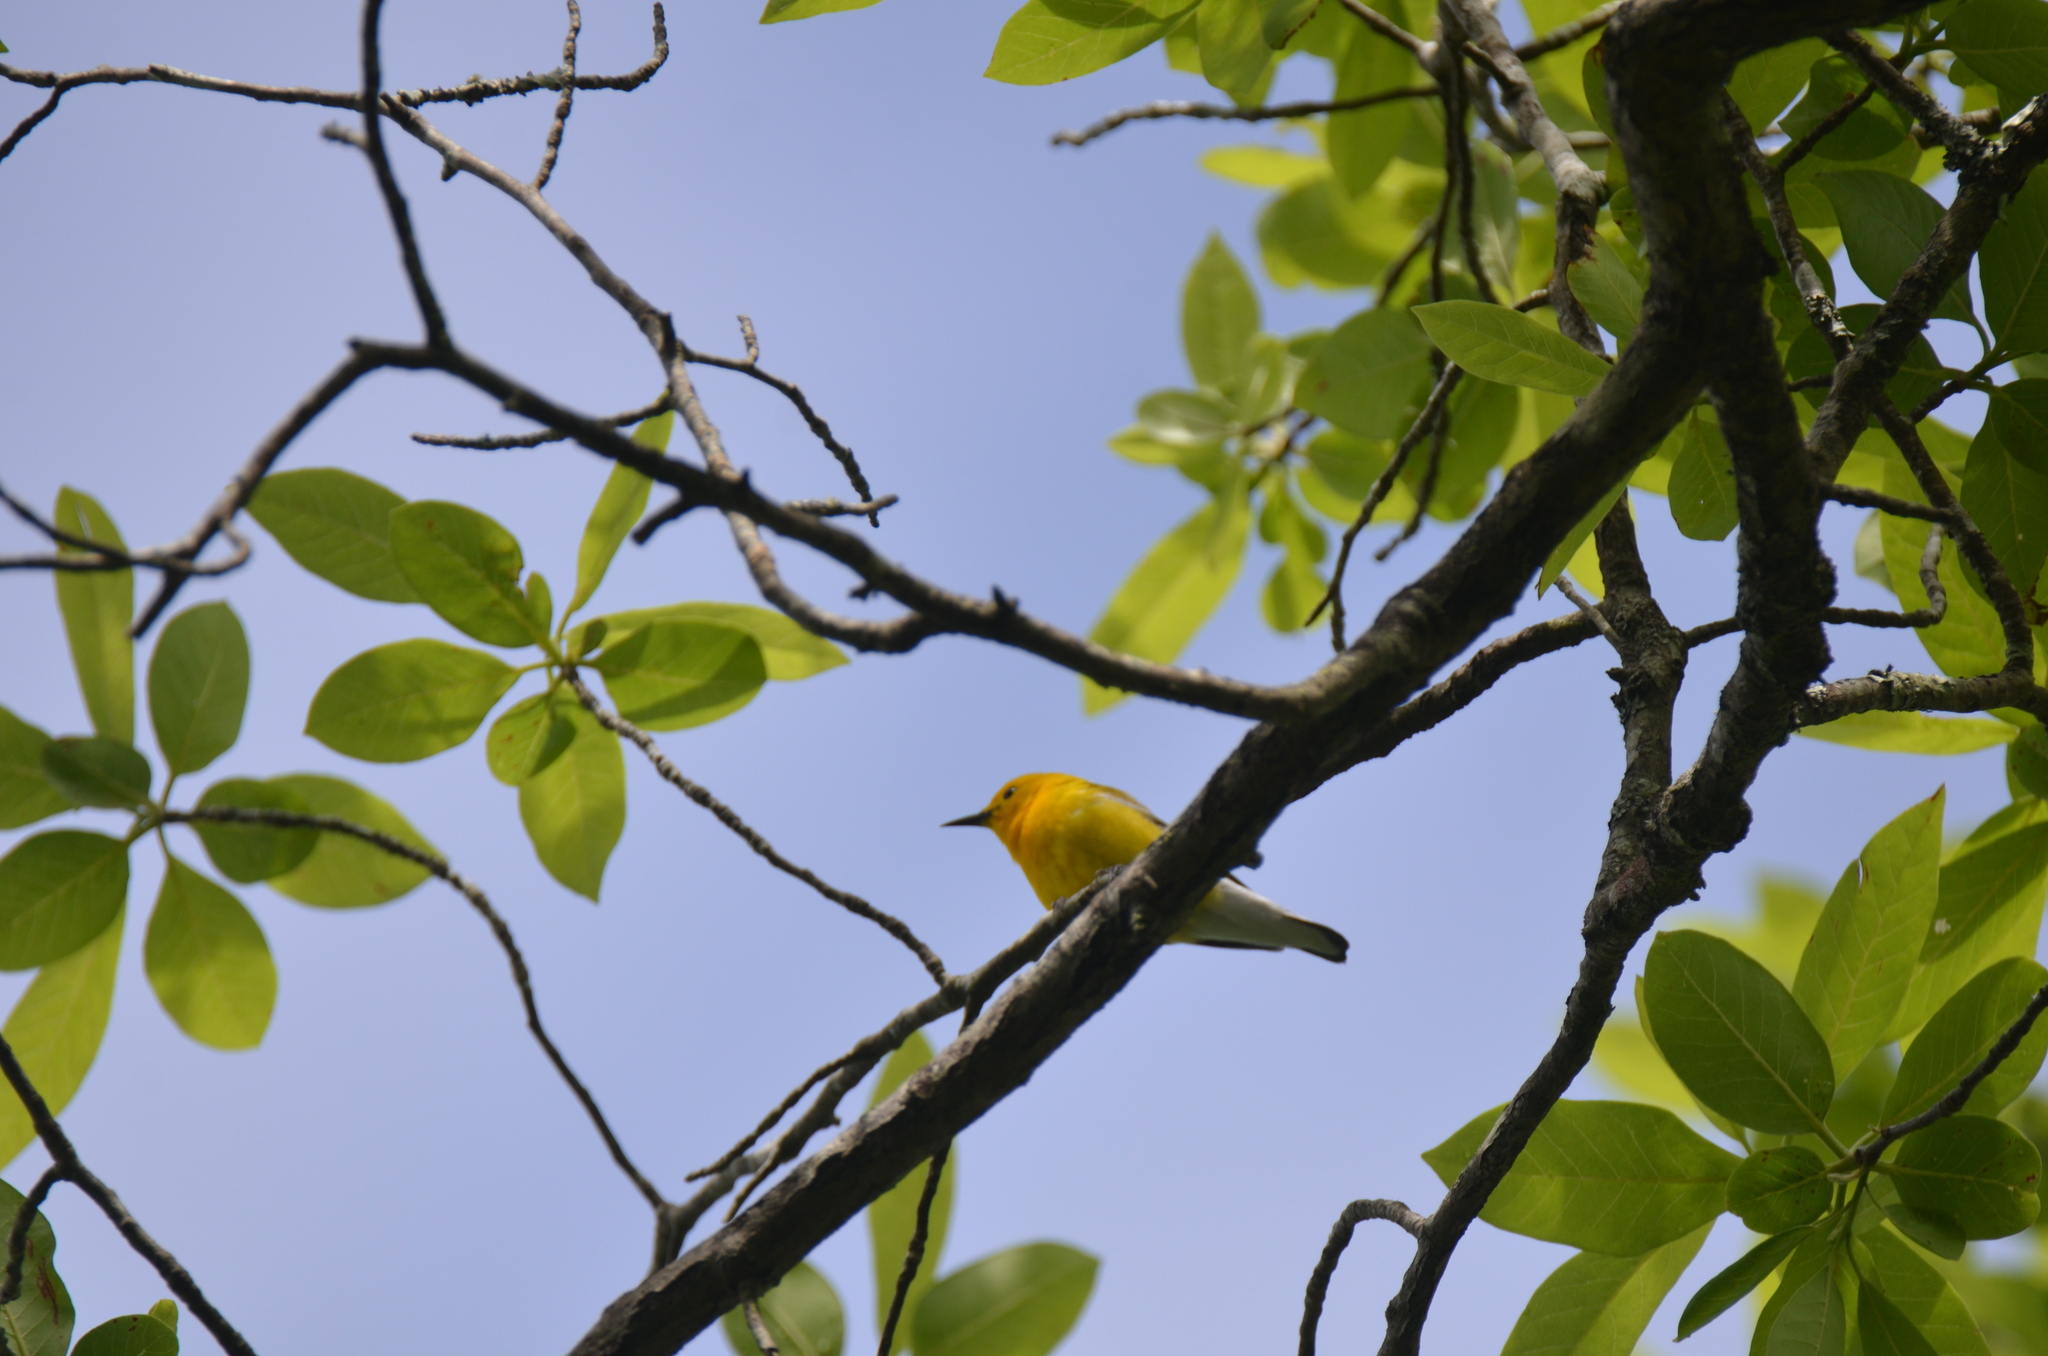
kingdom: Animalia
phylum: Chordata
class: Aves
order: Passeriformes
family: Parulidae
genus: Protonotaria
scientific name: Protonotaria citrea
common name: Prothonotary warbler
